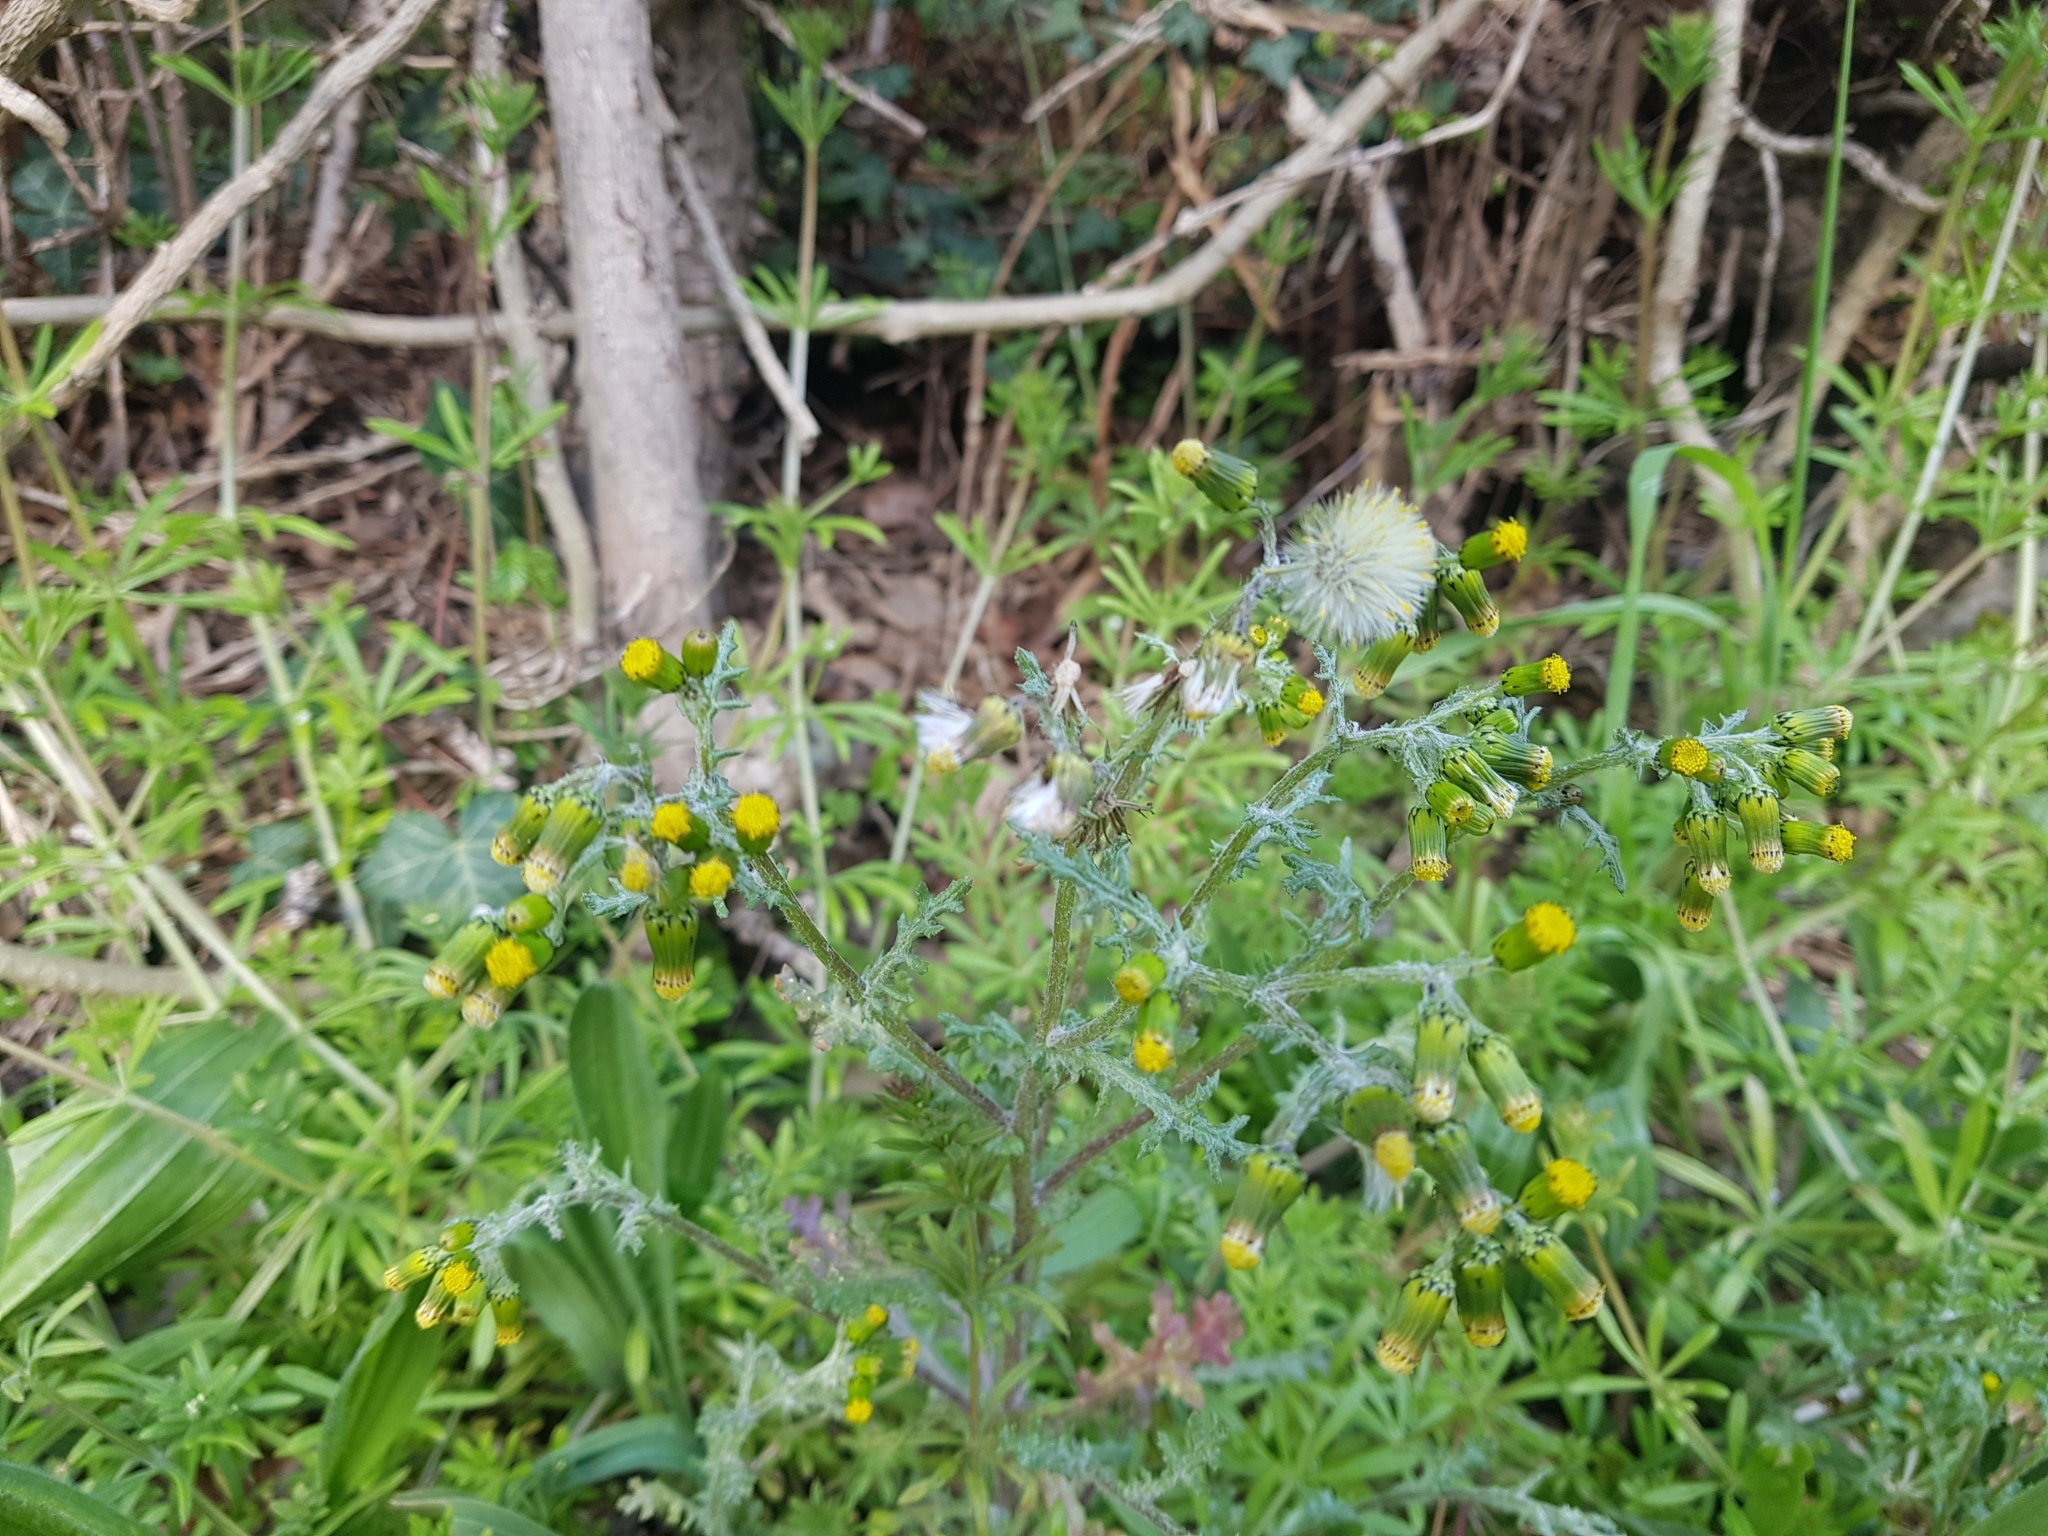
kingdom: Plantae
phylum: Tracheophyta
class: Magnoliopsida
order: Asterales
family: Asteraceae
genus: Senecio
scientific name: Senecio vulgaris
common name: Old-man-in-the-spring
